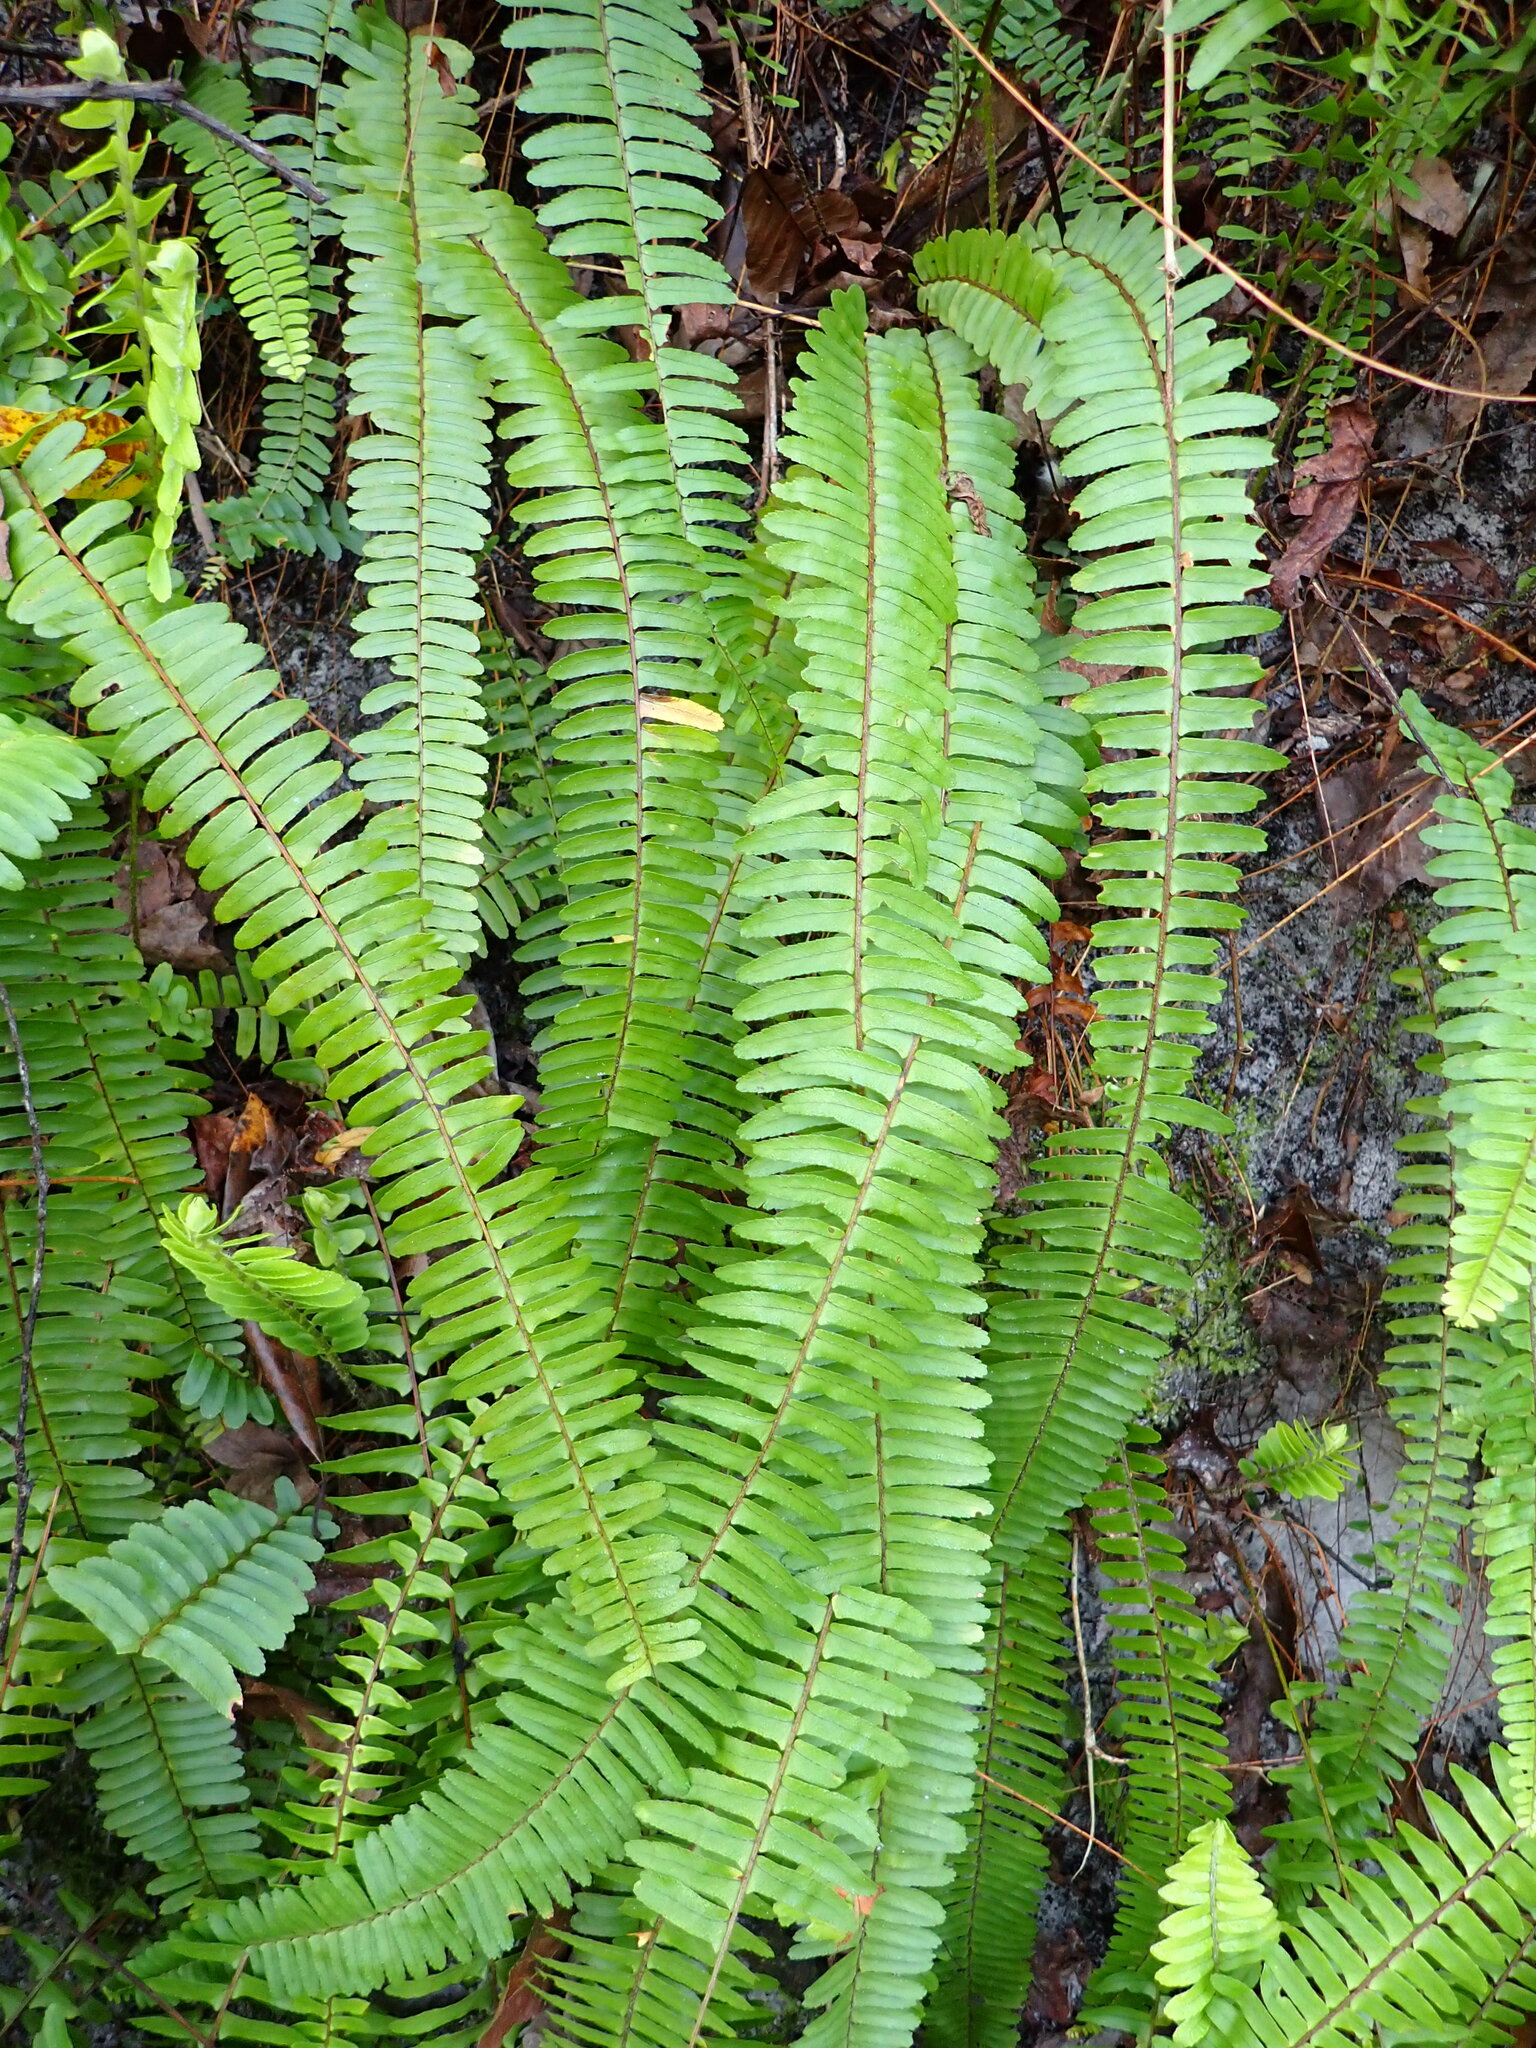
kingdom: Plantae
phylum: Tracheophyta
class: Polypodiopsida
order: Polypodiales
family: Nephrolepidaceae
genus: Nephrolepis
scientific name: Nephrolepis cordifolia
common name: Narrow swordfern
